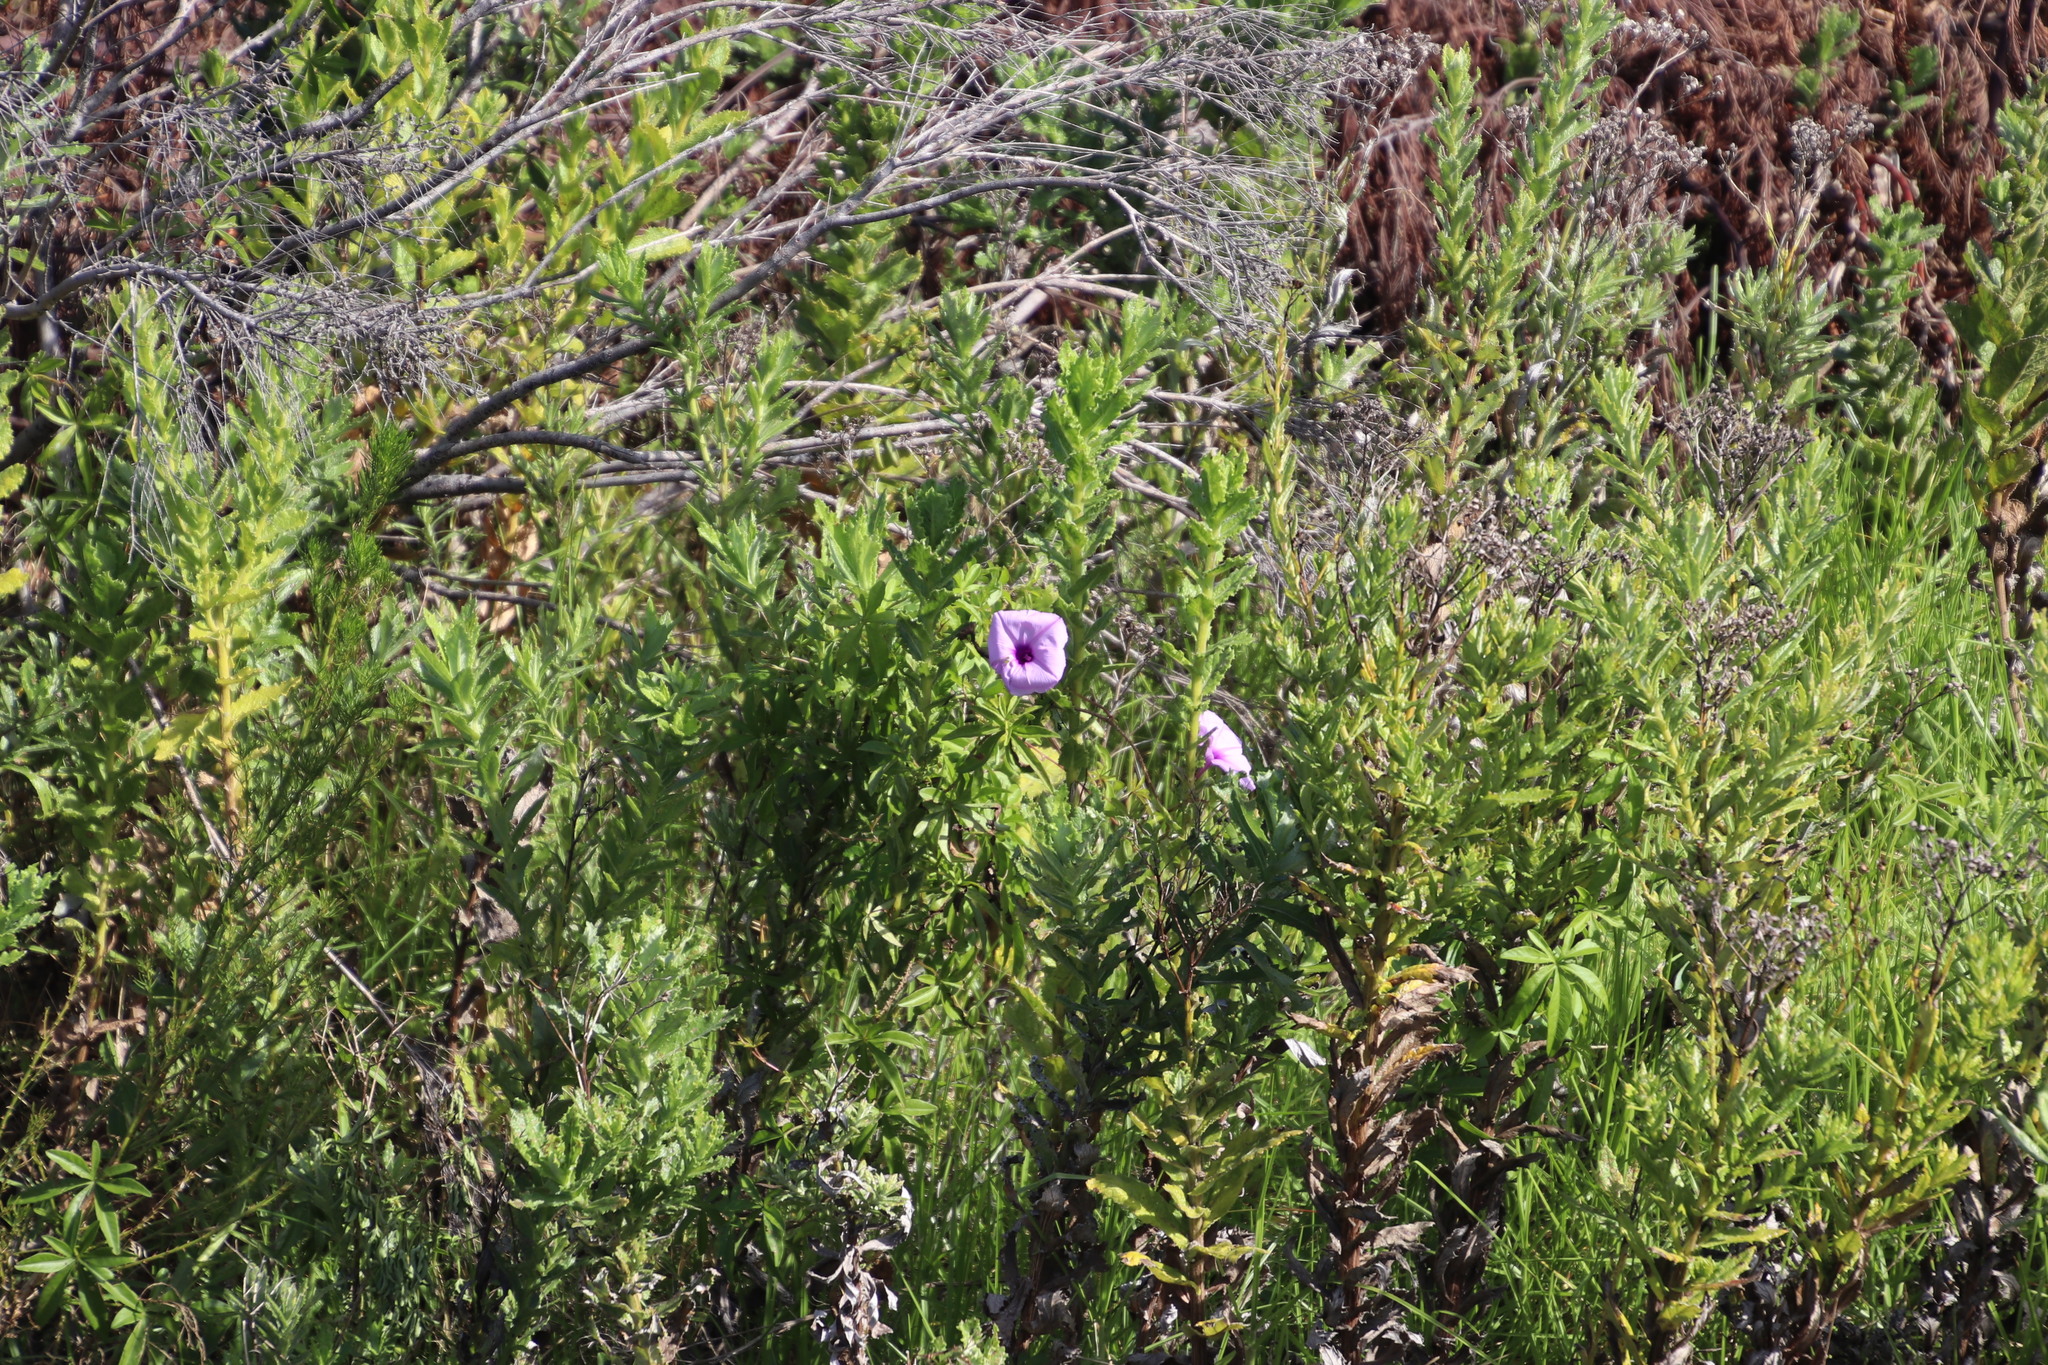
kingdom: Plantae
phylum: Tracheophyta
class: Magnoliopsida
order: Solanales
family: Convolvulaceae
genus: Ipomoea
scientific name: Ipomoea cairica
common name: Mile a minute vine
